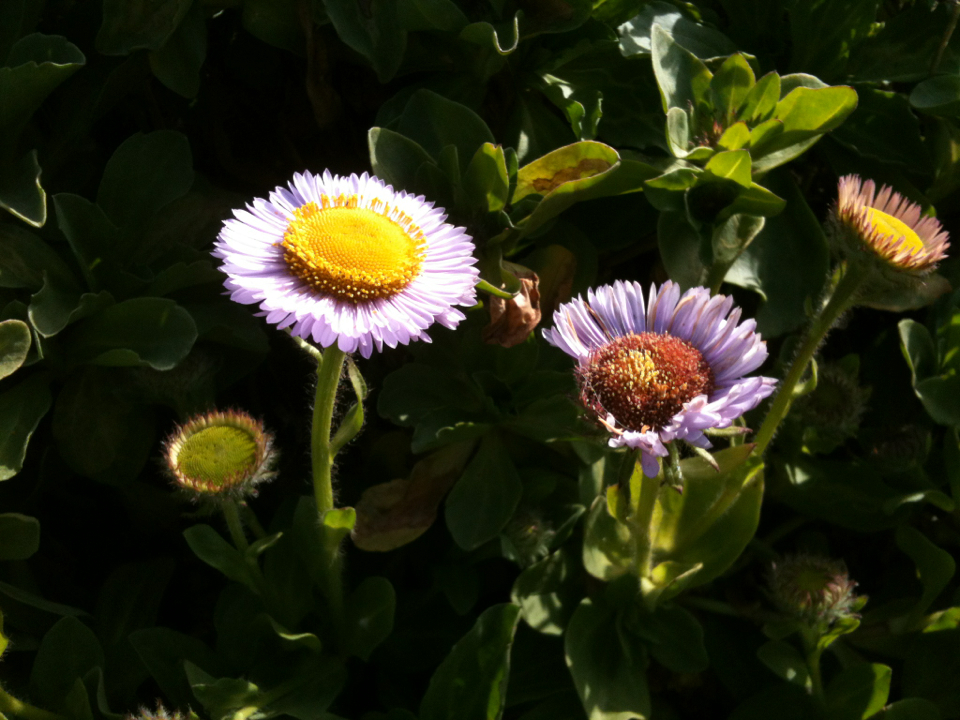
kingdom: Plantae
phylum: Tracheophyta
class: Magnoliopsida
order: Asterales
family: Asteraceae
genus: Erigeron
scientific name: Erigeron glaucus
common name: Seaside daisy
